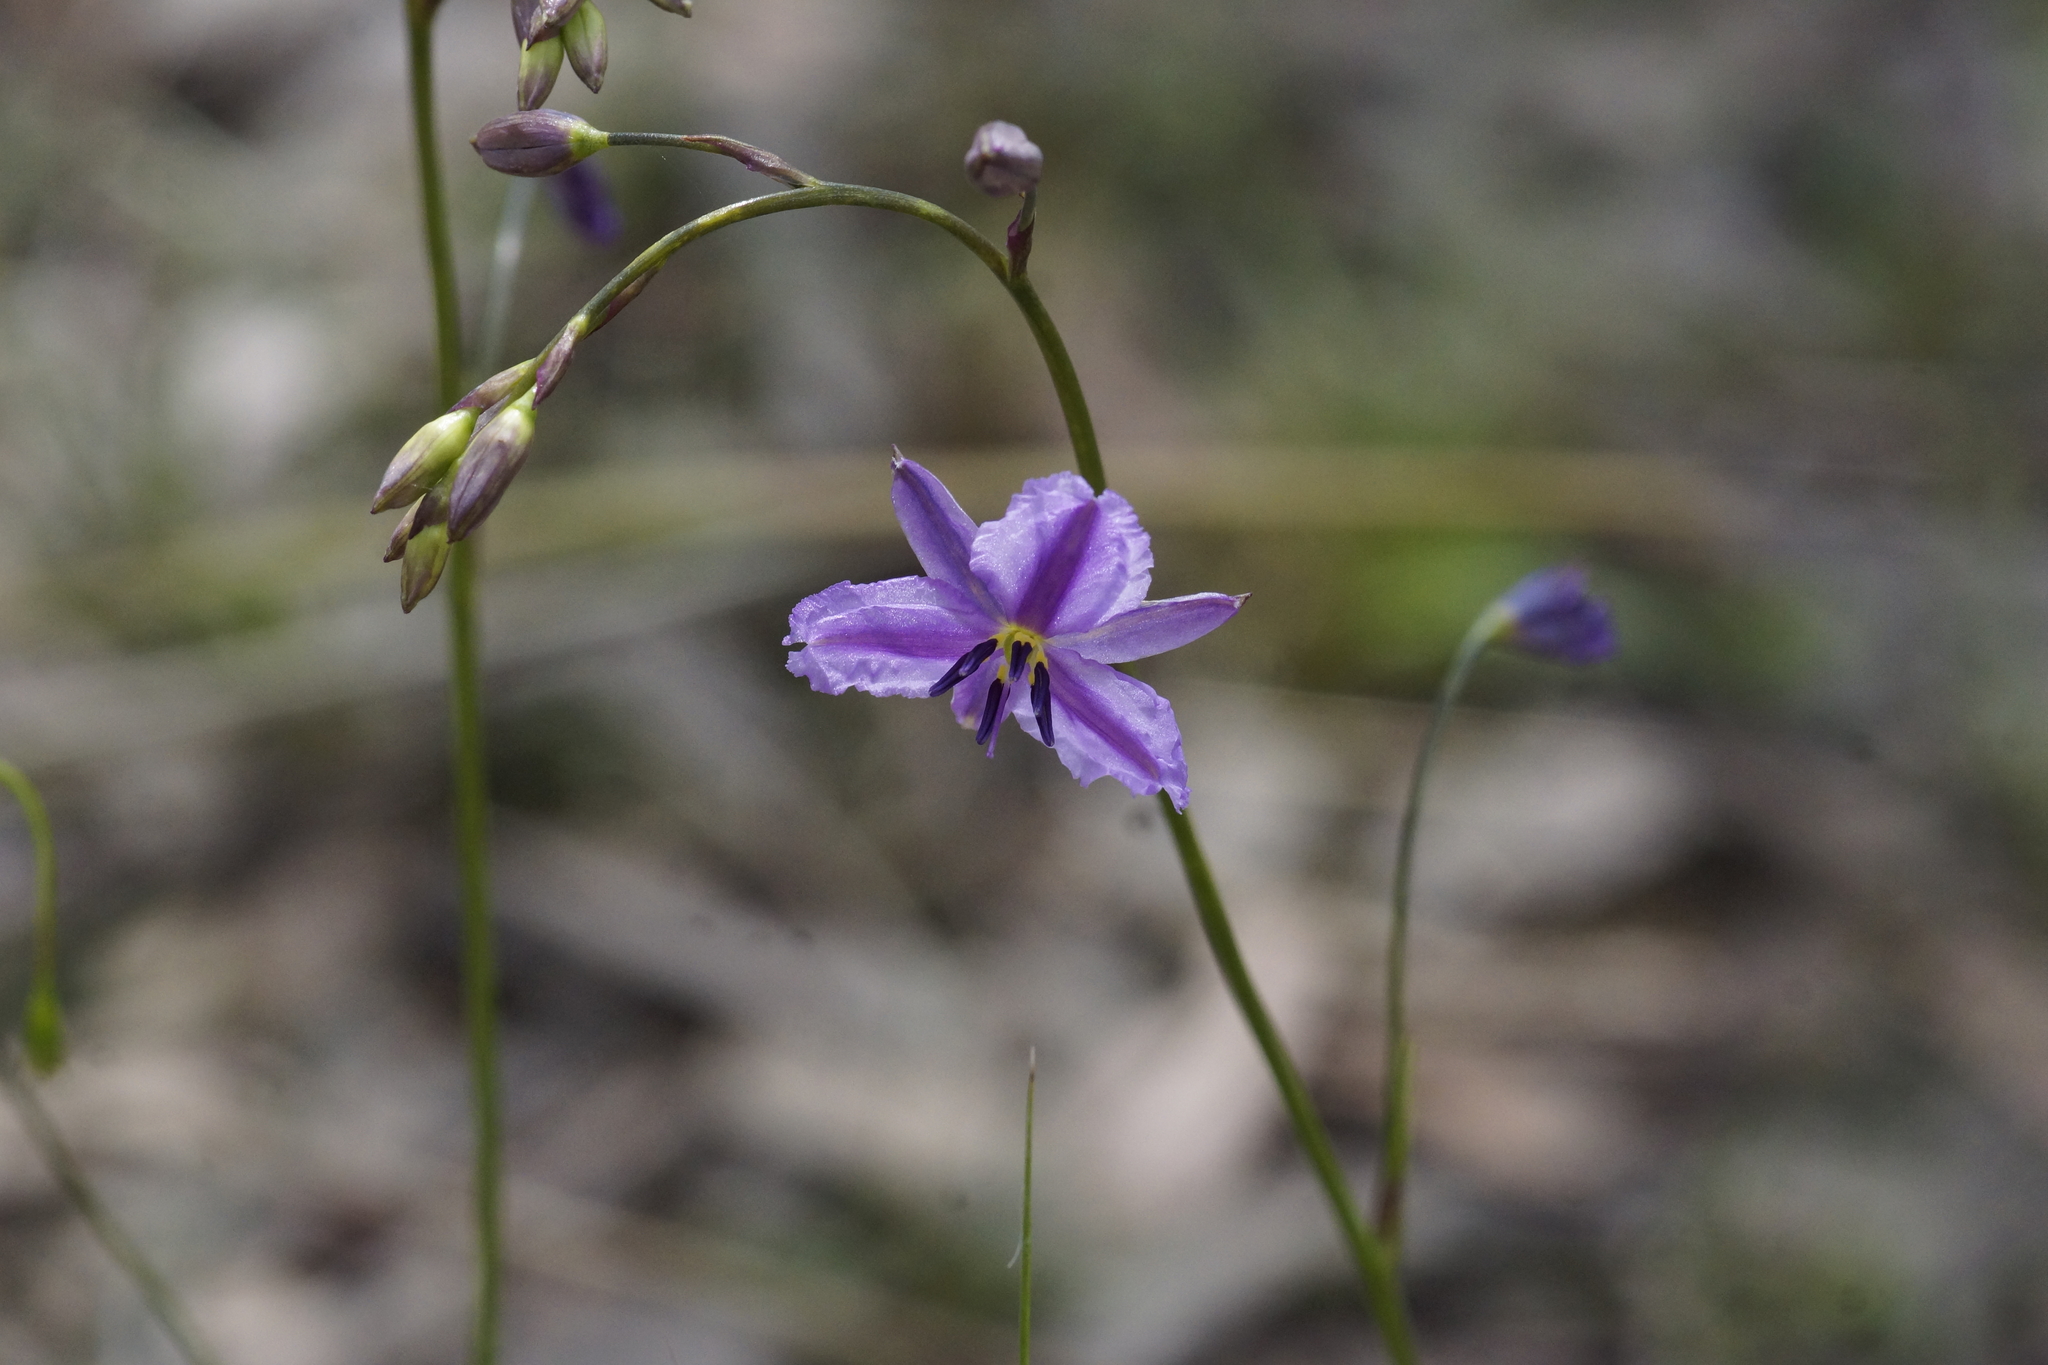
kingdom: Plantae
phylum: Tracheophyta
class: Liliopsida
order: Asparagales
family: Asparagaceae
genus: Arthropodium
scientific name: Arthropodium strictum
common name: Chocolate-lily
